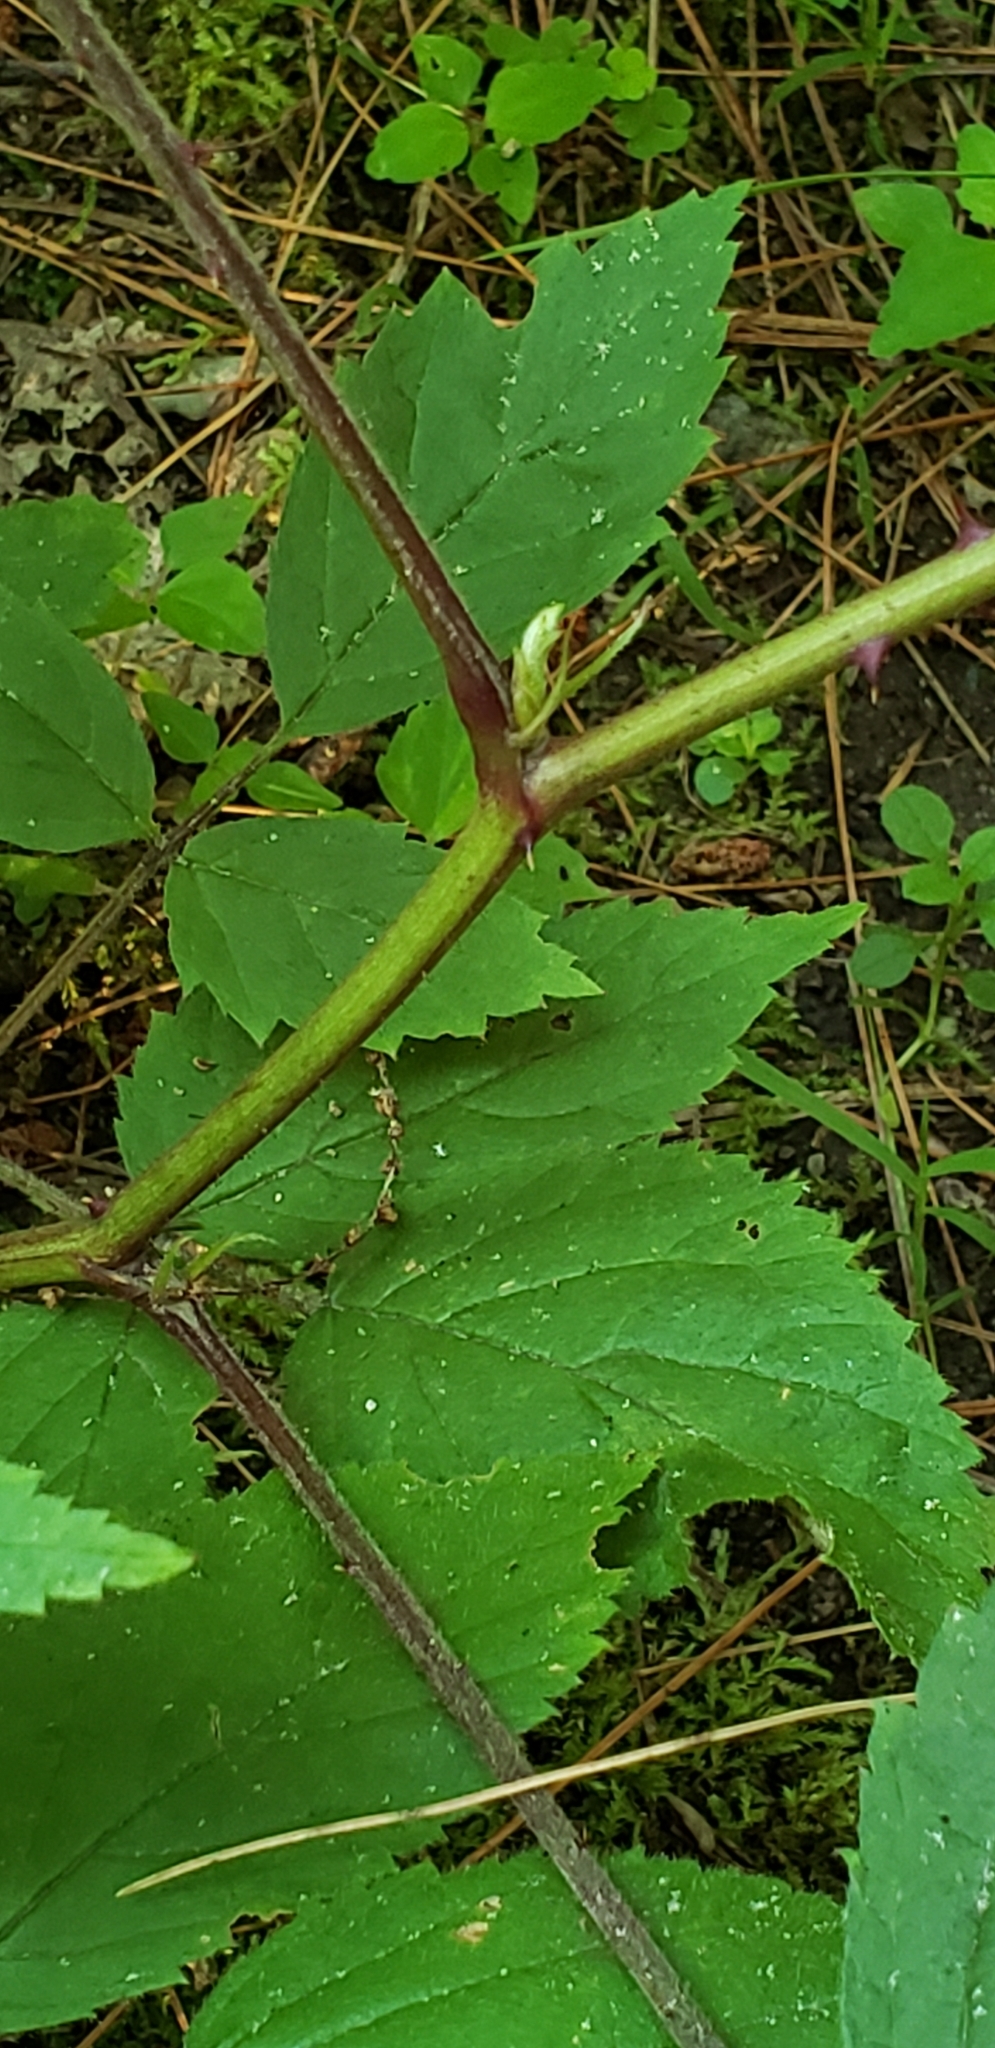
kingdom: Plantae
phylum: Tracheophyta
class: Magnoliopsida
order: Rosales
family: Rosaceae
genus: Rubus
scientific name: Rubus flagellaris
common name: American dewberry
